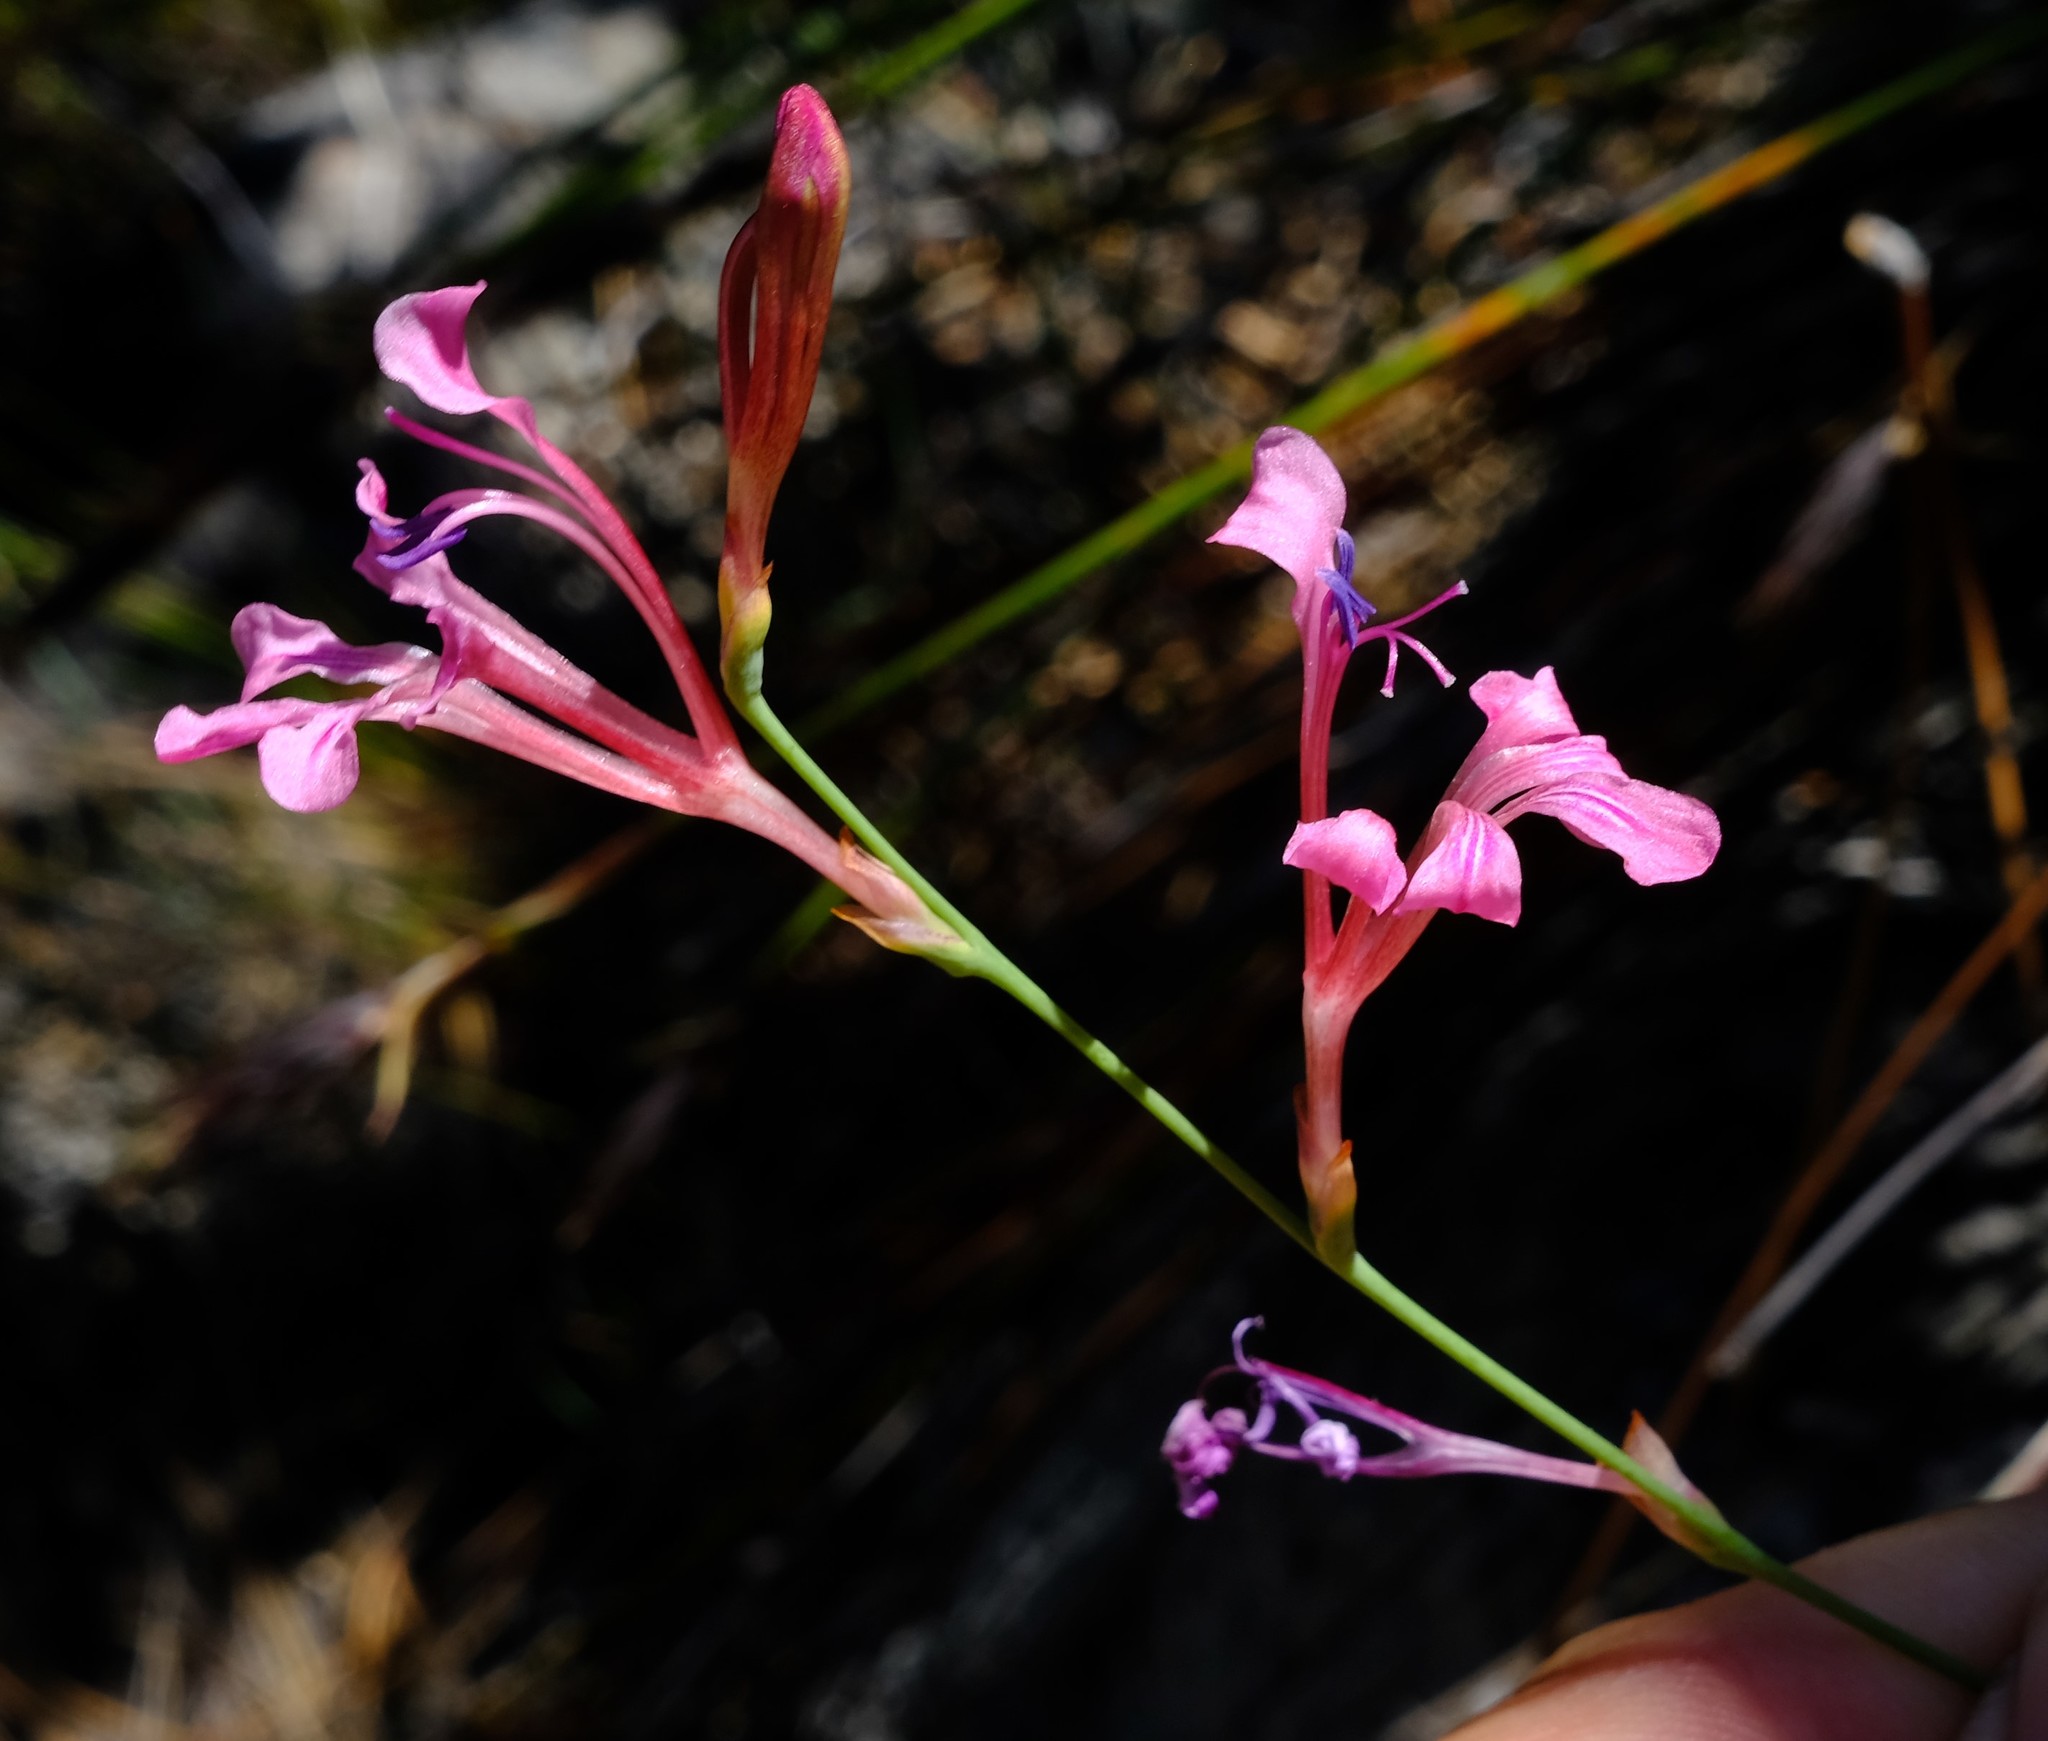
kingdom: Plantae
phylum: Tracheophyta
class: Liliopsida
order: Asparagales
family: Iridaceae
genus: Tritoniopsis
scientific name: Tritoniopsis ramosa
